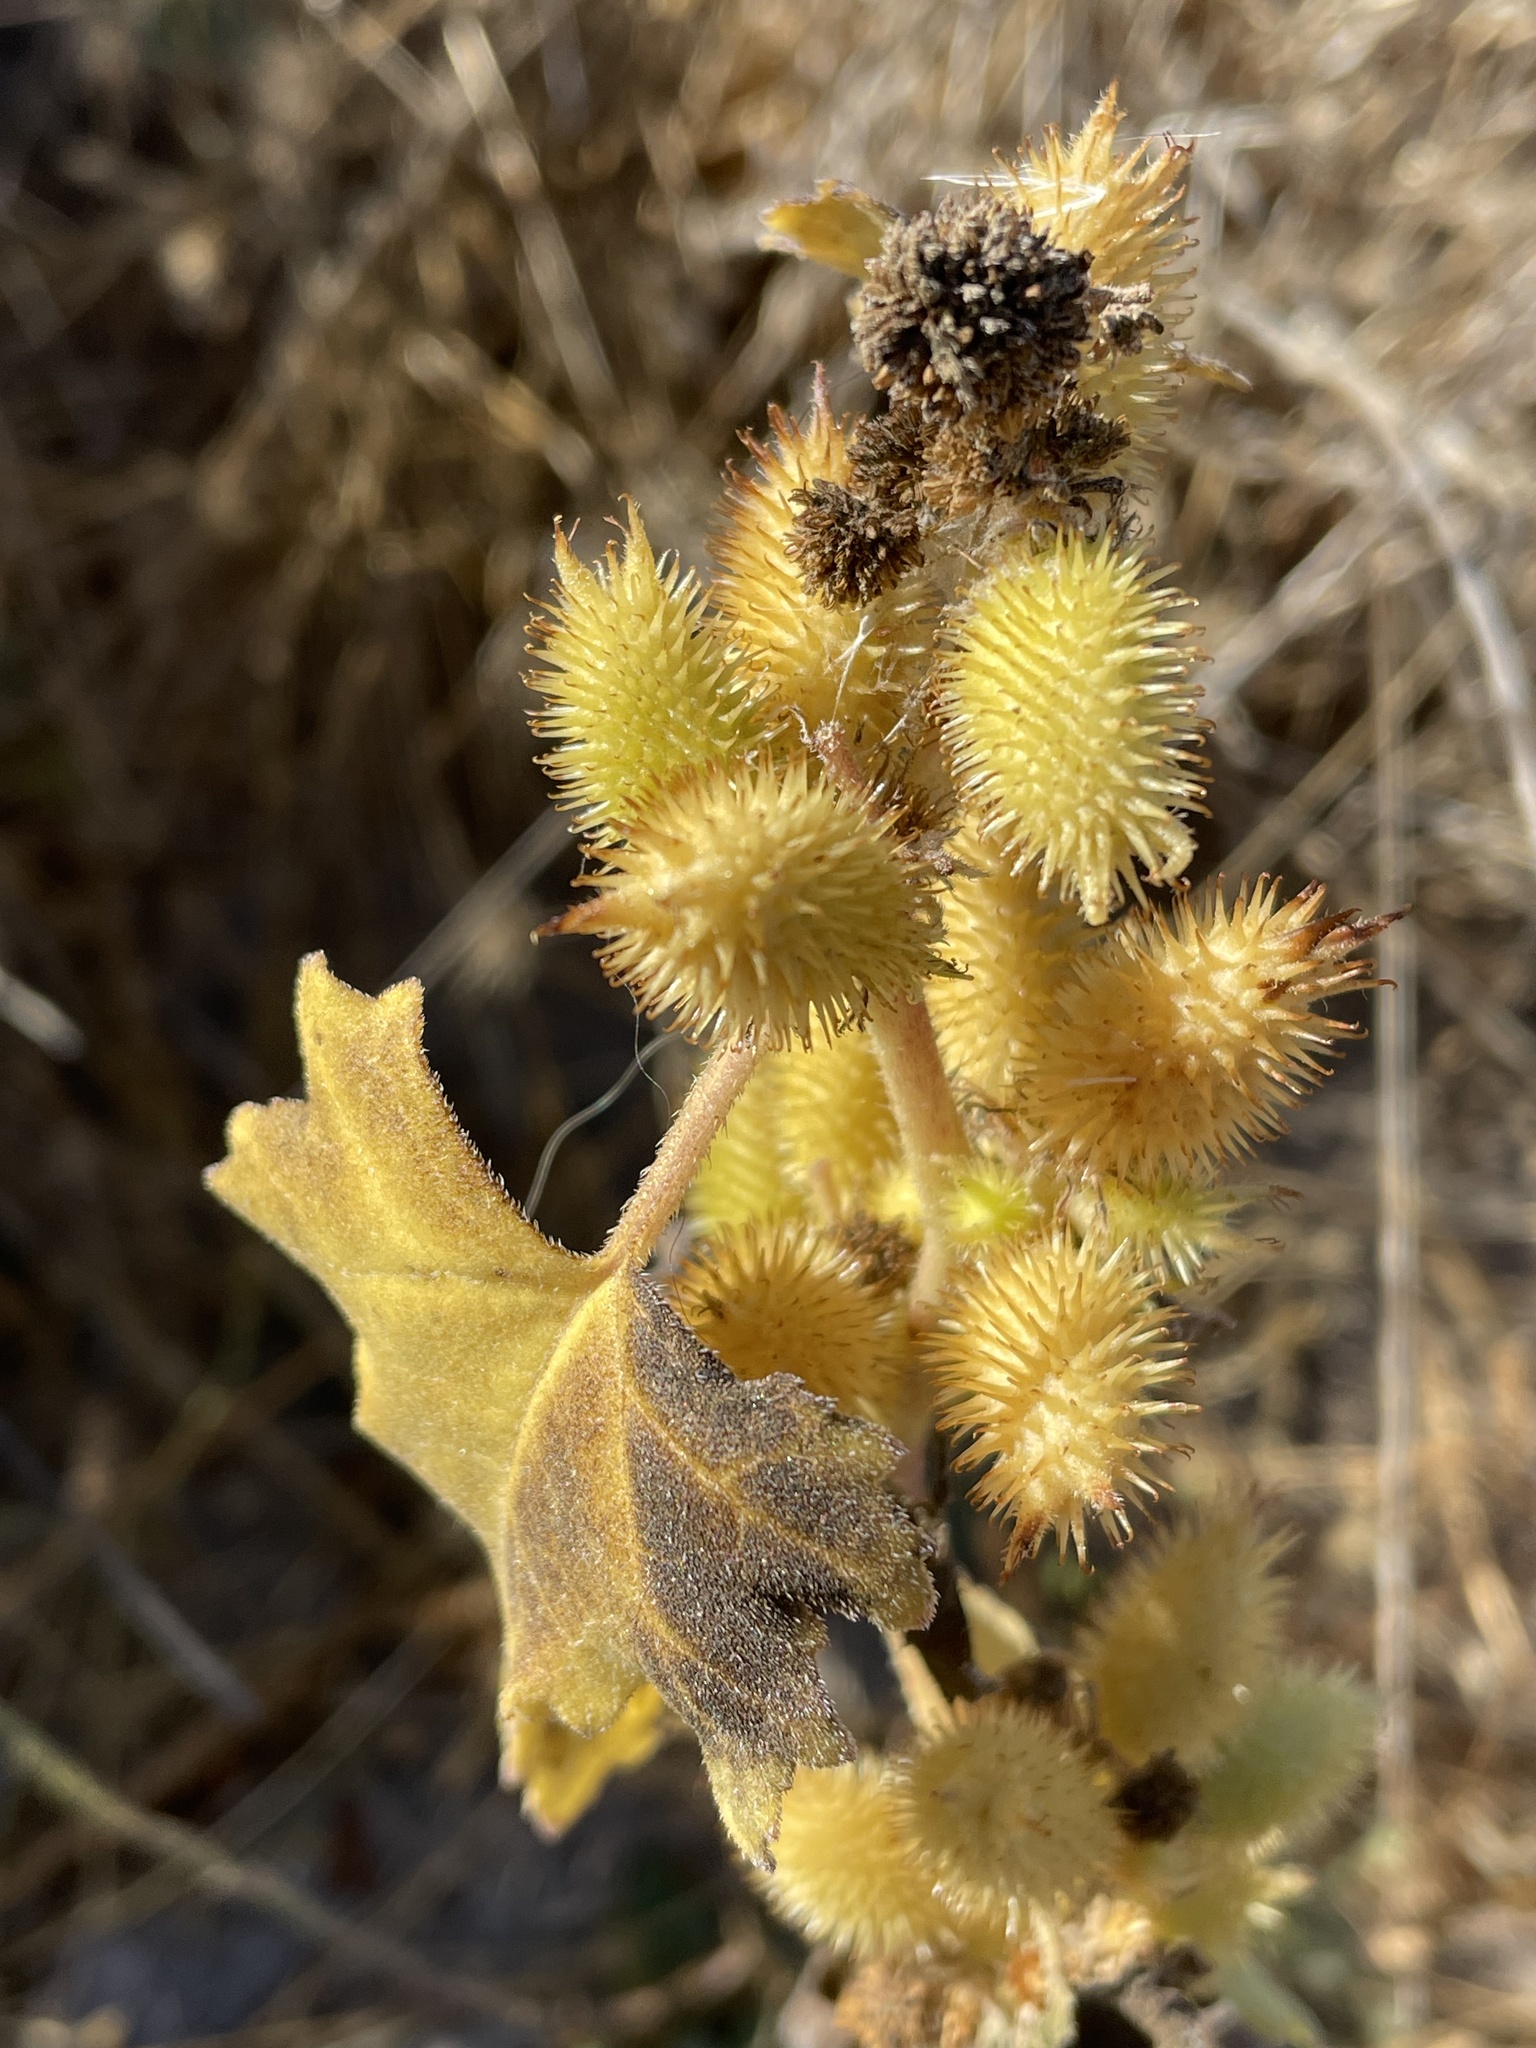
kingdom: Plantae
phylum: Tracheophyta
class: Magnoliopsida
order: Asterales
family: Asteraceae
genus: Xanthium
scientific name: Xanthium orientale
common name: Californian burr
